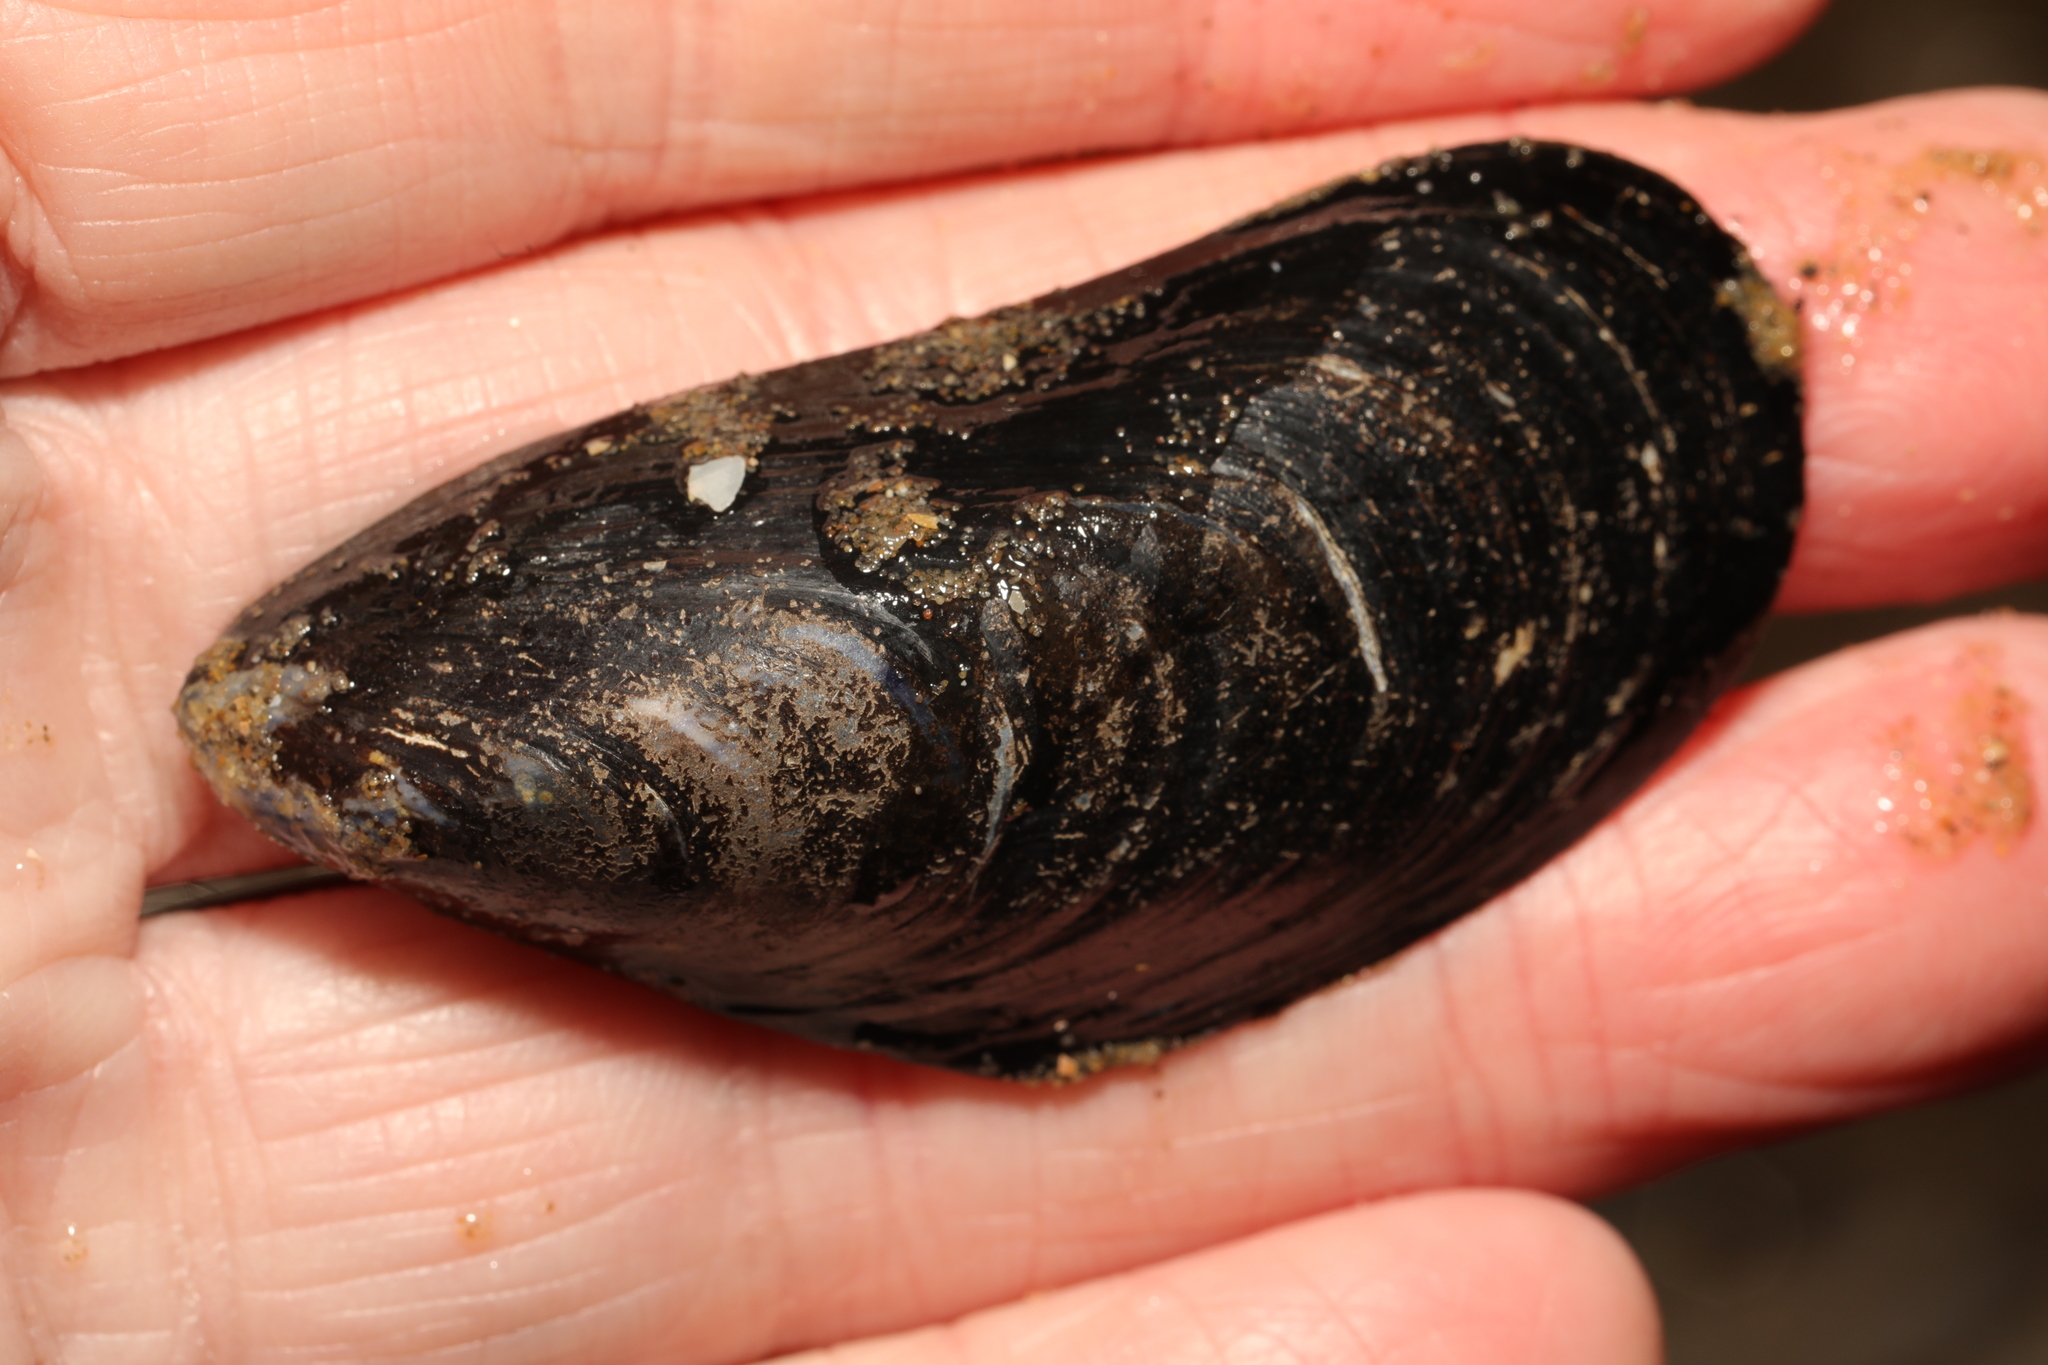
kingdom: Animalia
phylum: Mollusca
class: Bivalvia
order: Mytilida
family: Mytilidae
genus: Mytilus
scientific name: Mytilus edulis
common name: Blue mussel
